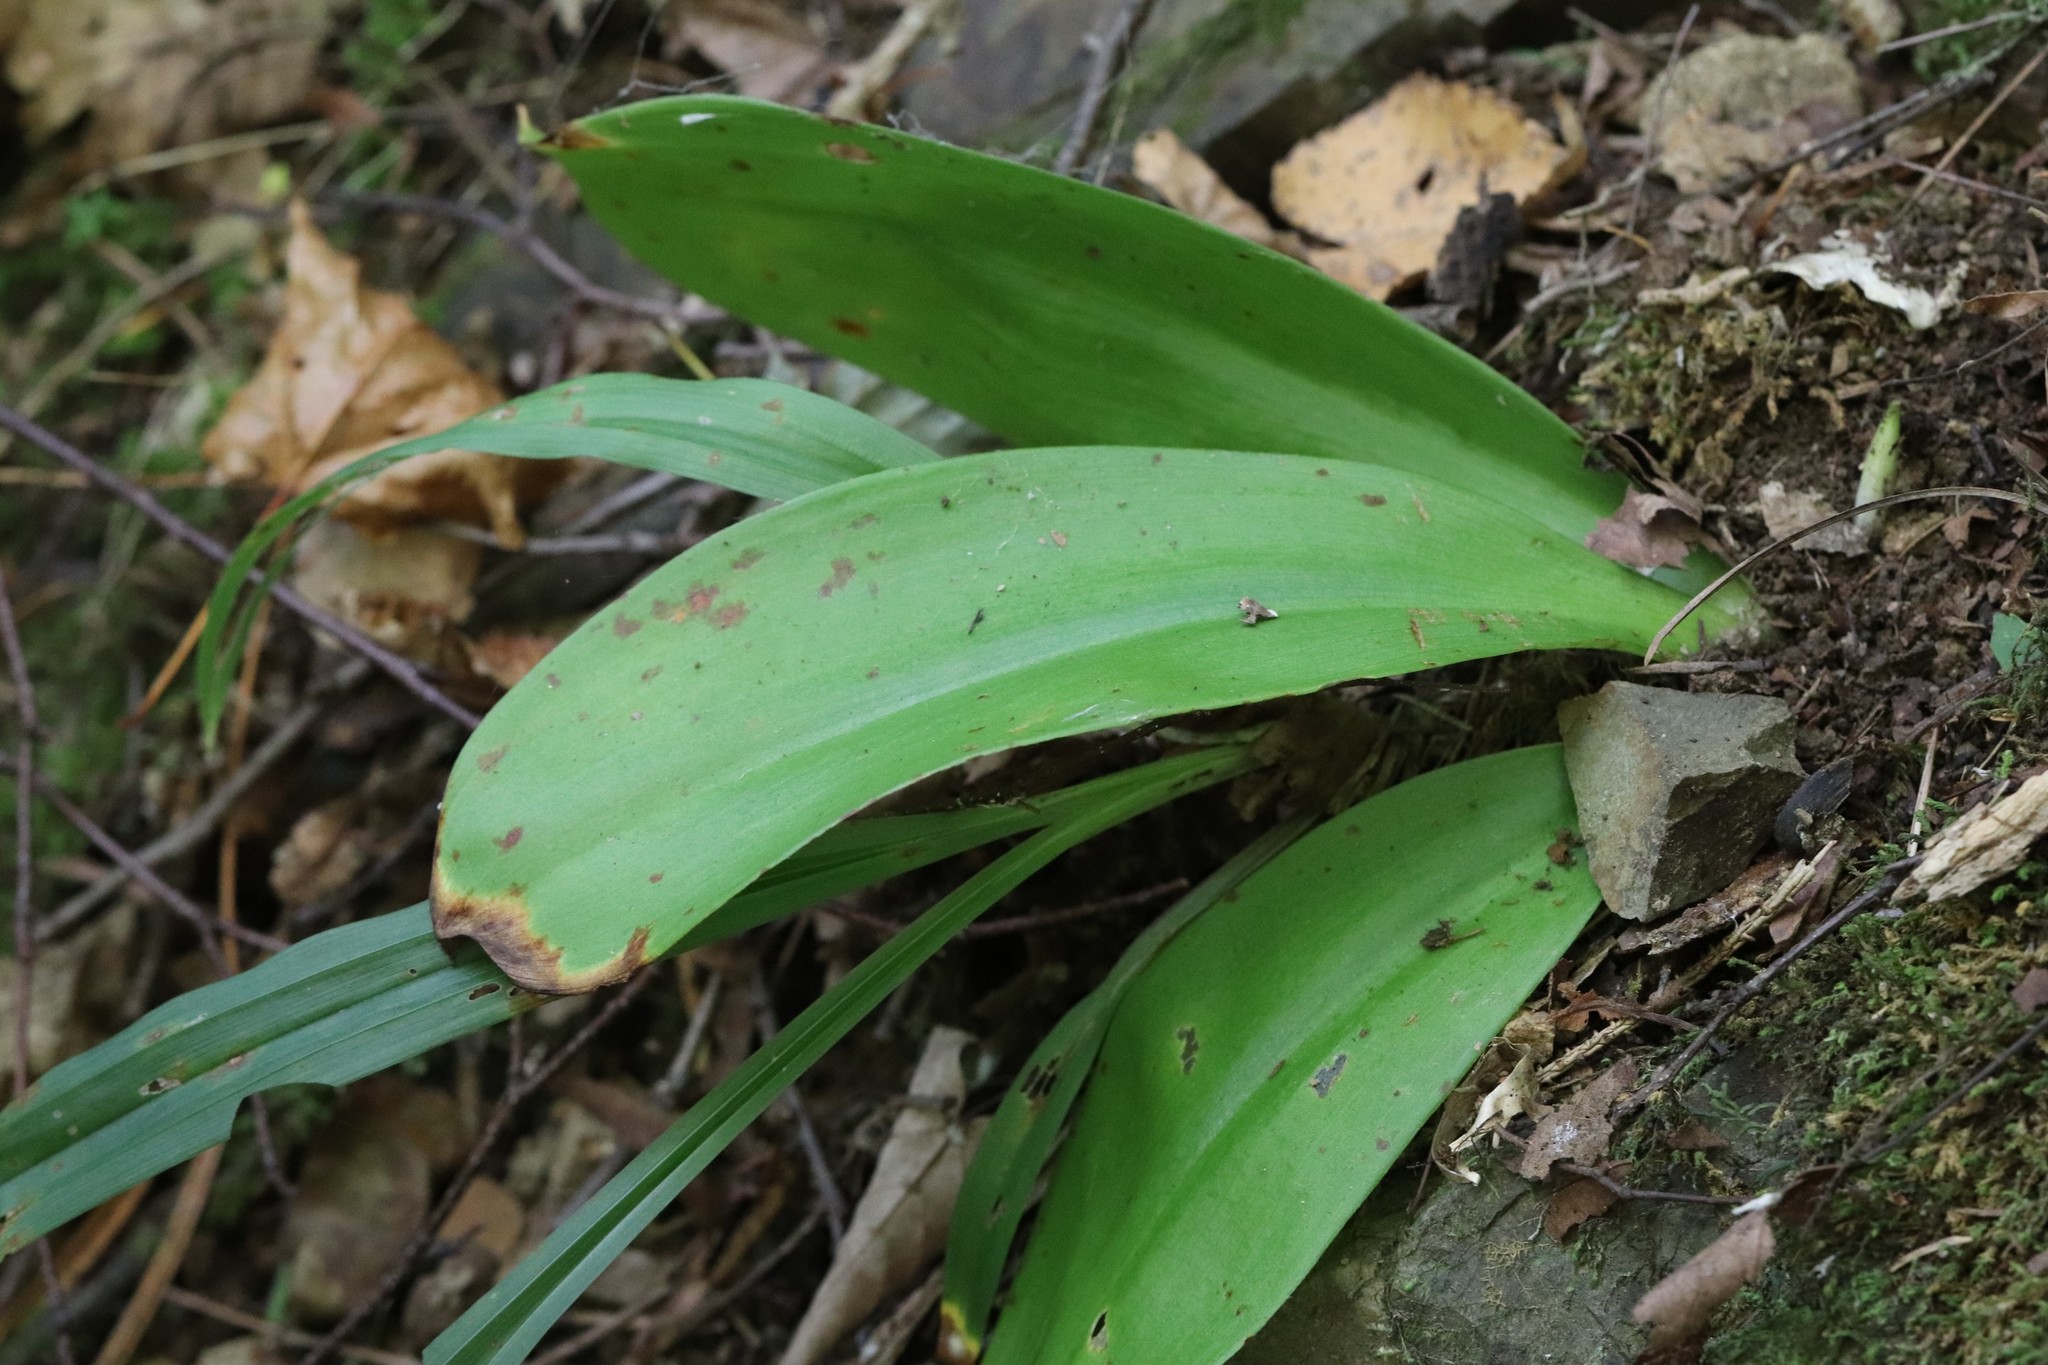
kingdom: Plantae
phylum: Tracheophyta
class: Liliopsida
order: Liliales
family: Liliaceae
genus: Clintonia
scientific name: Clintonia udensis
